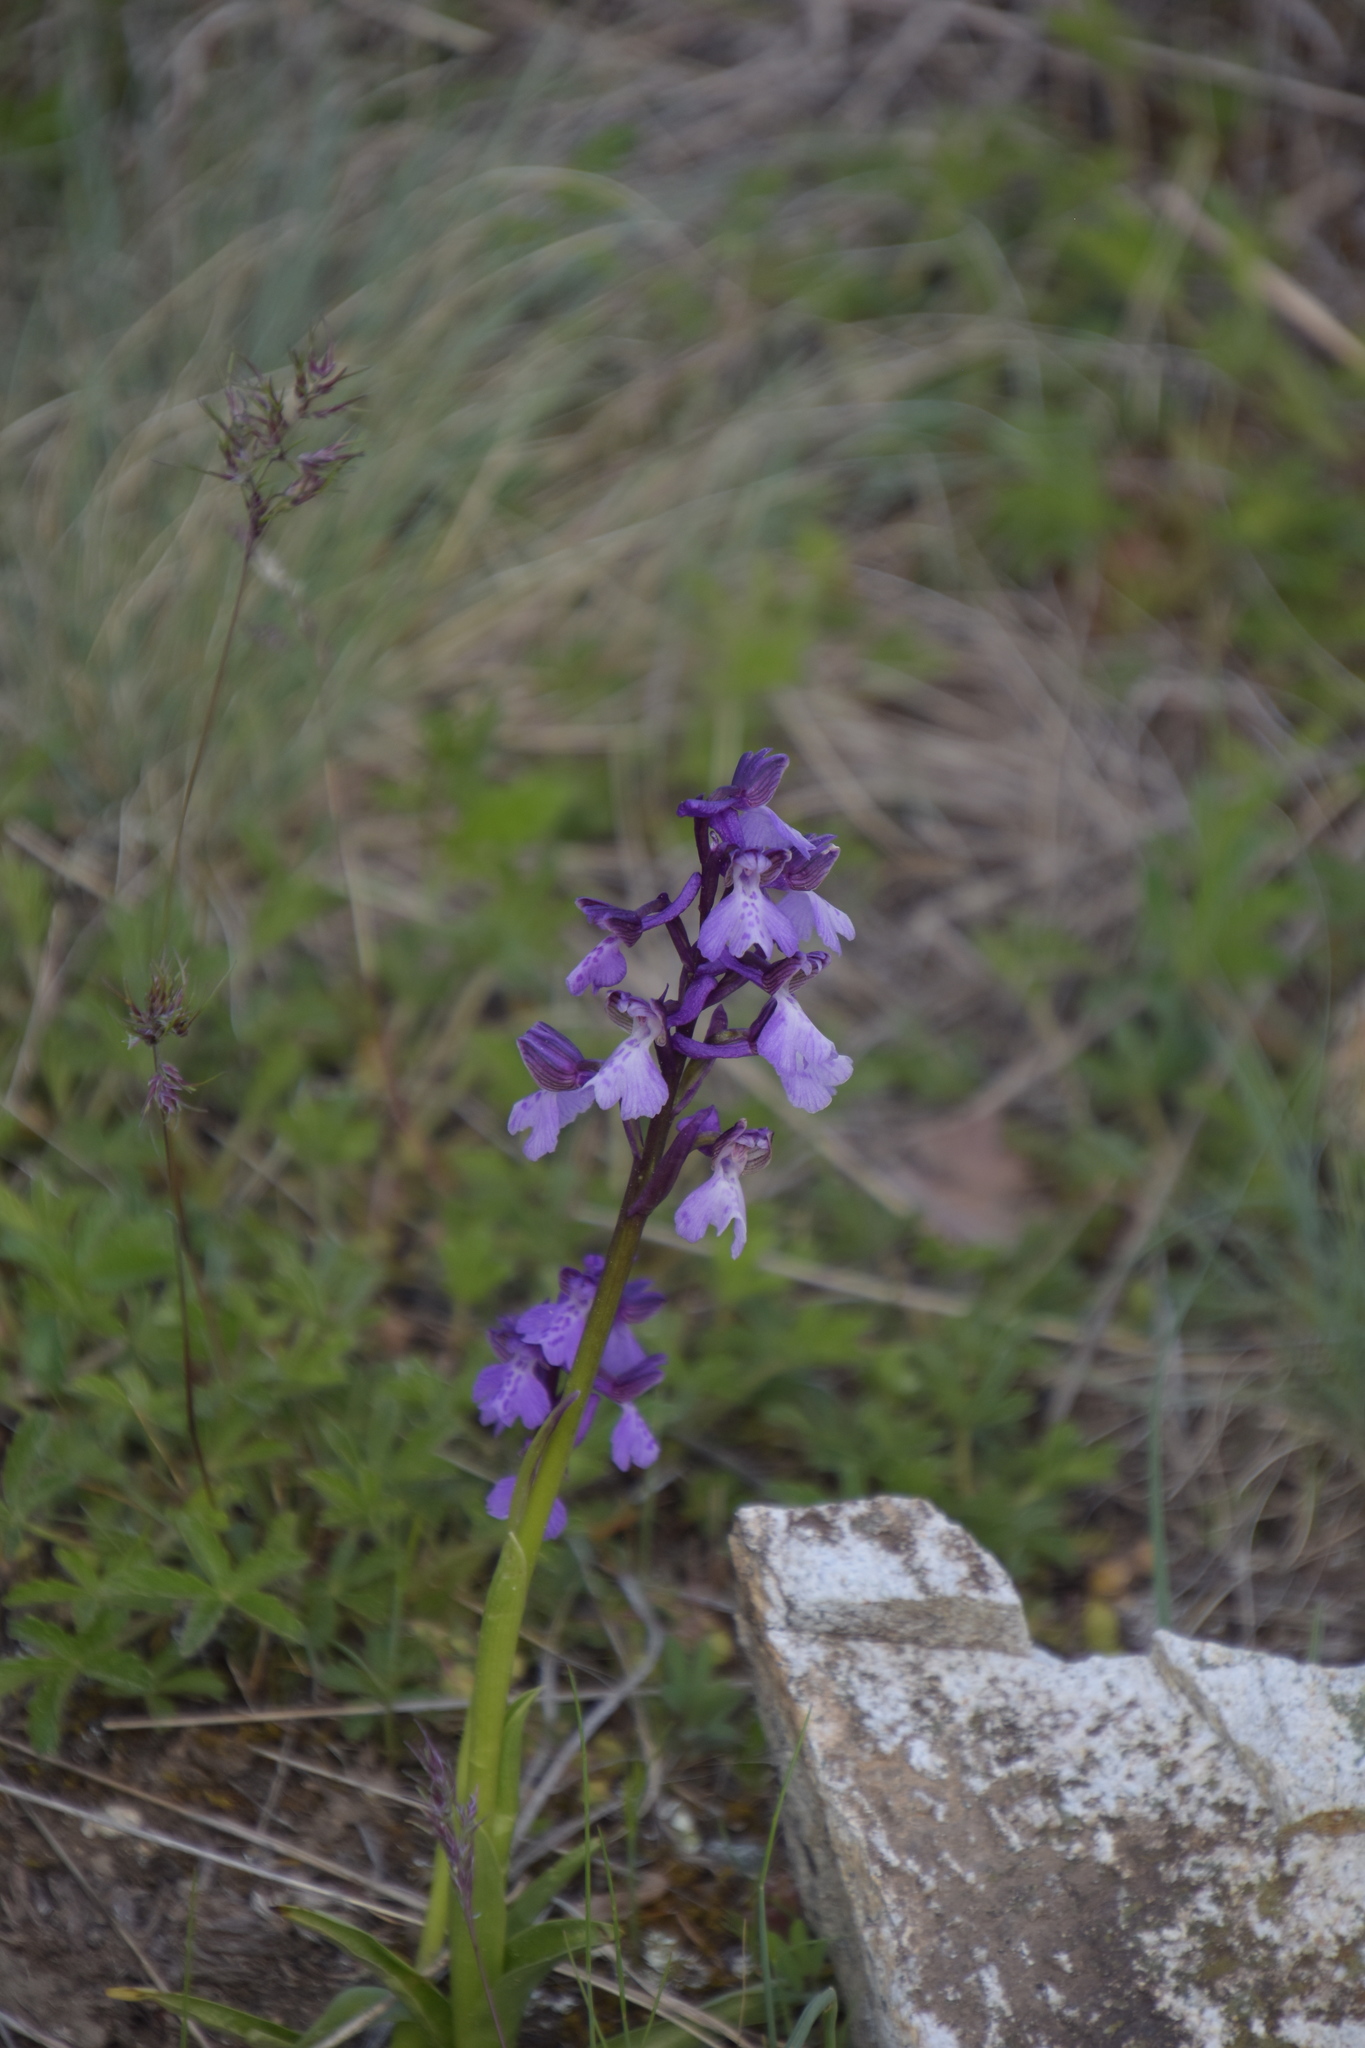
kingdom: Plantae
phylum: Tracheophyta
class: Liliopsida
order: Asparagales
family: Orchidaceae
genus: Anacamptis
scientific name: Anacamptis morio
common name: Green-winged orchid
